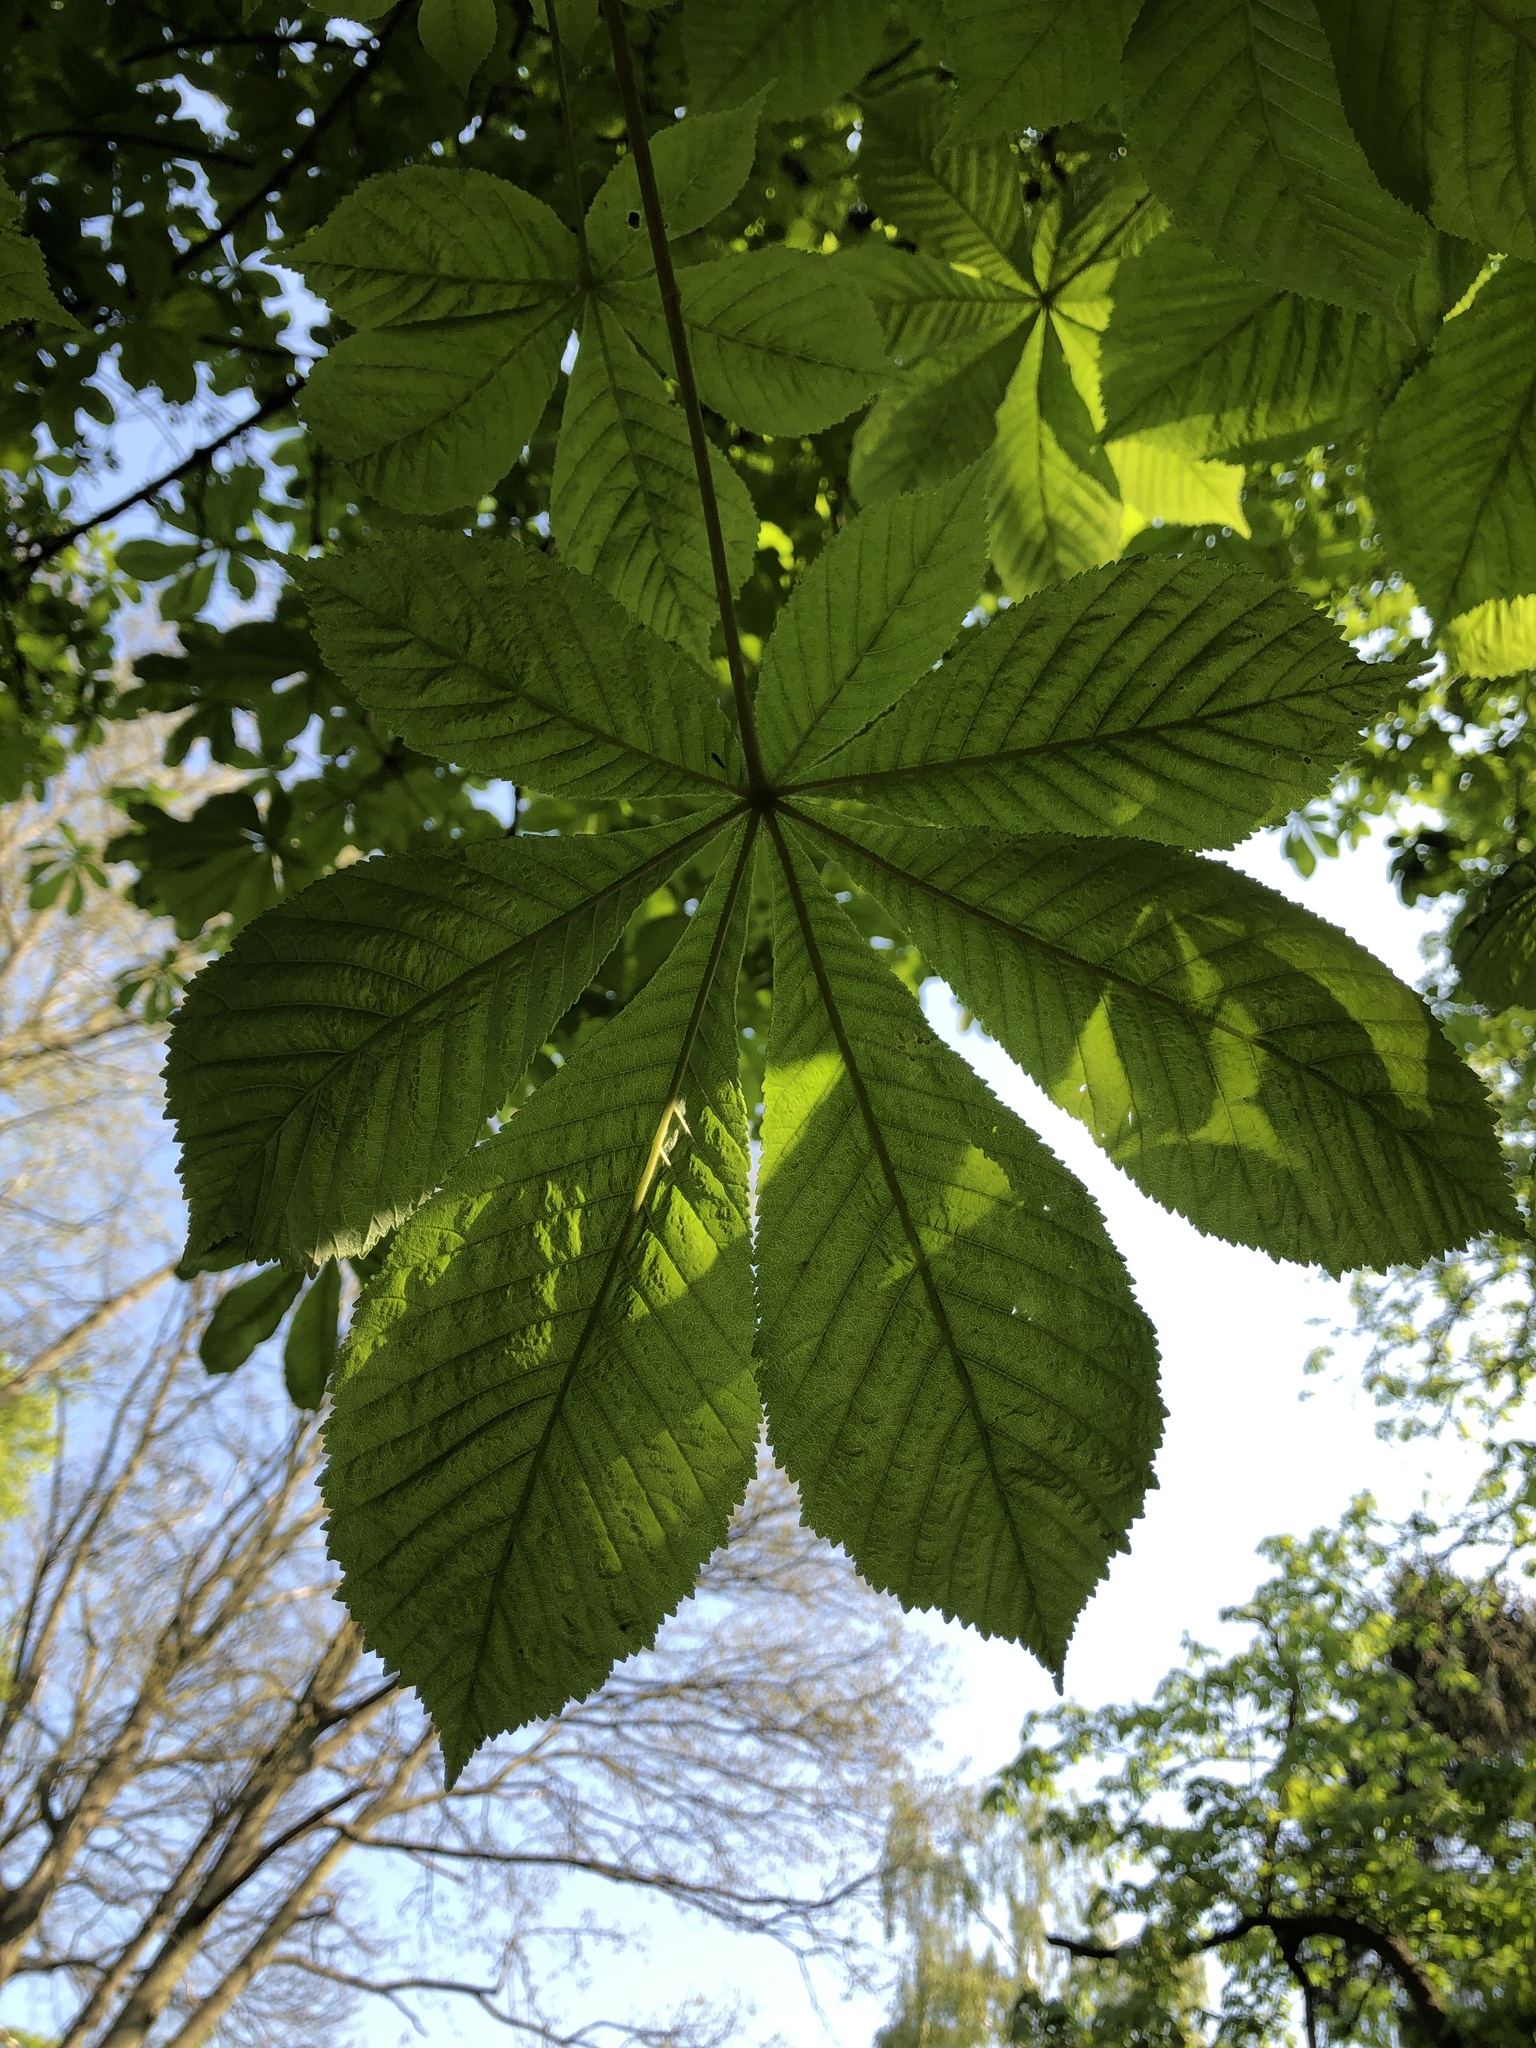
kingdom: Plantae
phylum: Tracheophyta
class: Magnoliopsida
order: Sapindales
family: Sapindaceae
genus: Aesculus
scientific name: Aesculus hippocastanum
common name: Horse-chestnut
